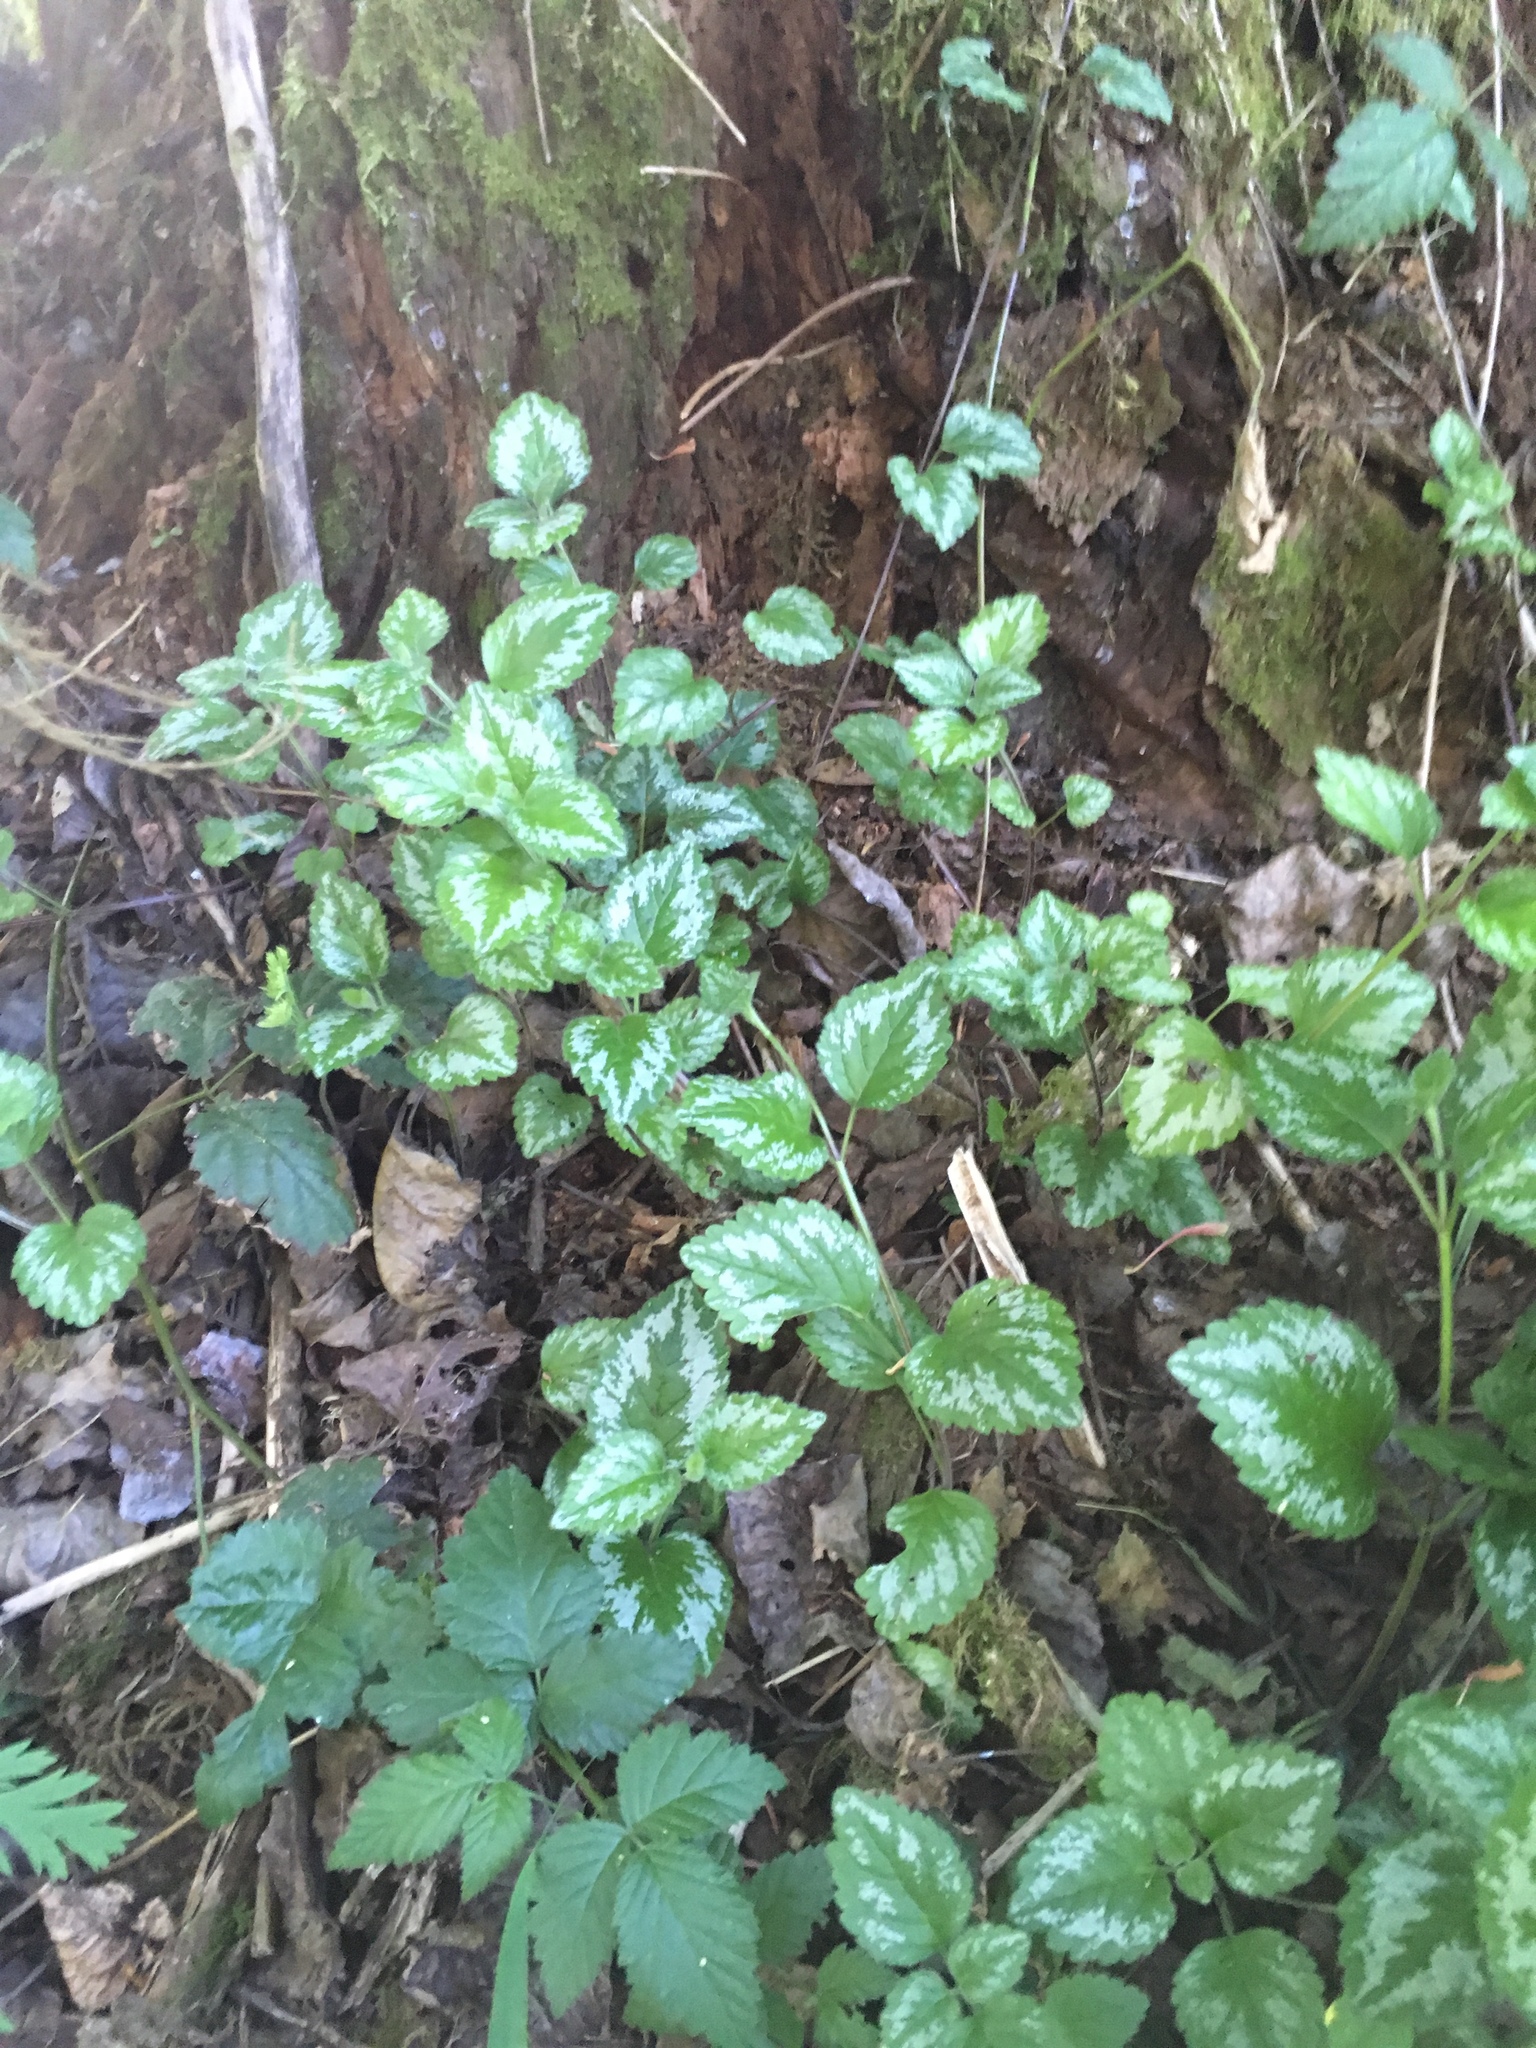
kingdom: Plantae
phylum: Tracheophyta
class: Magnoliopsida
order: Lamiales
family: Lamiaceae
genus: Lamium
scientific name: Lamium galeobdolon
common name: Yellow archangel
